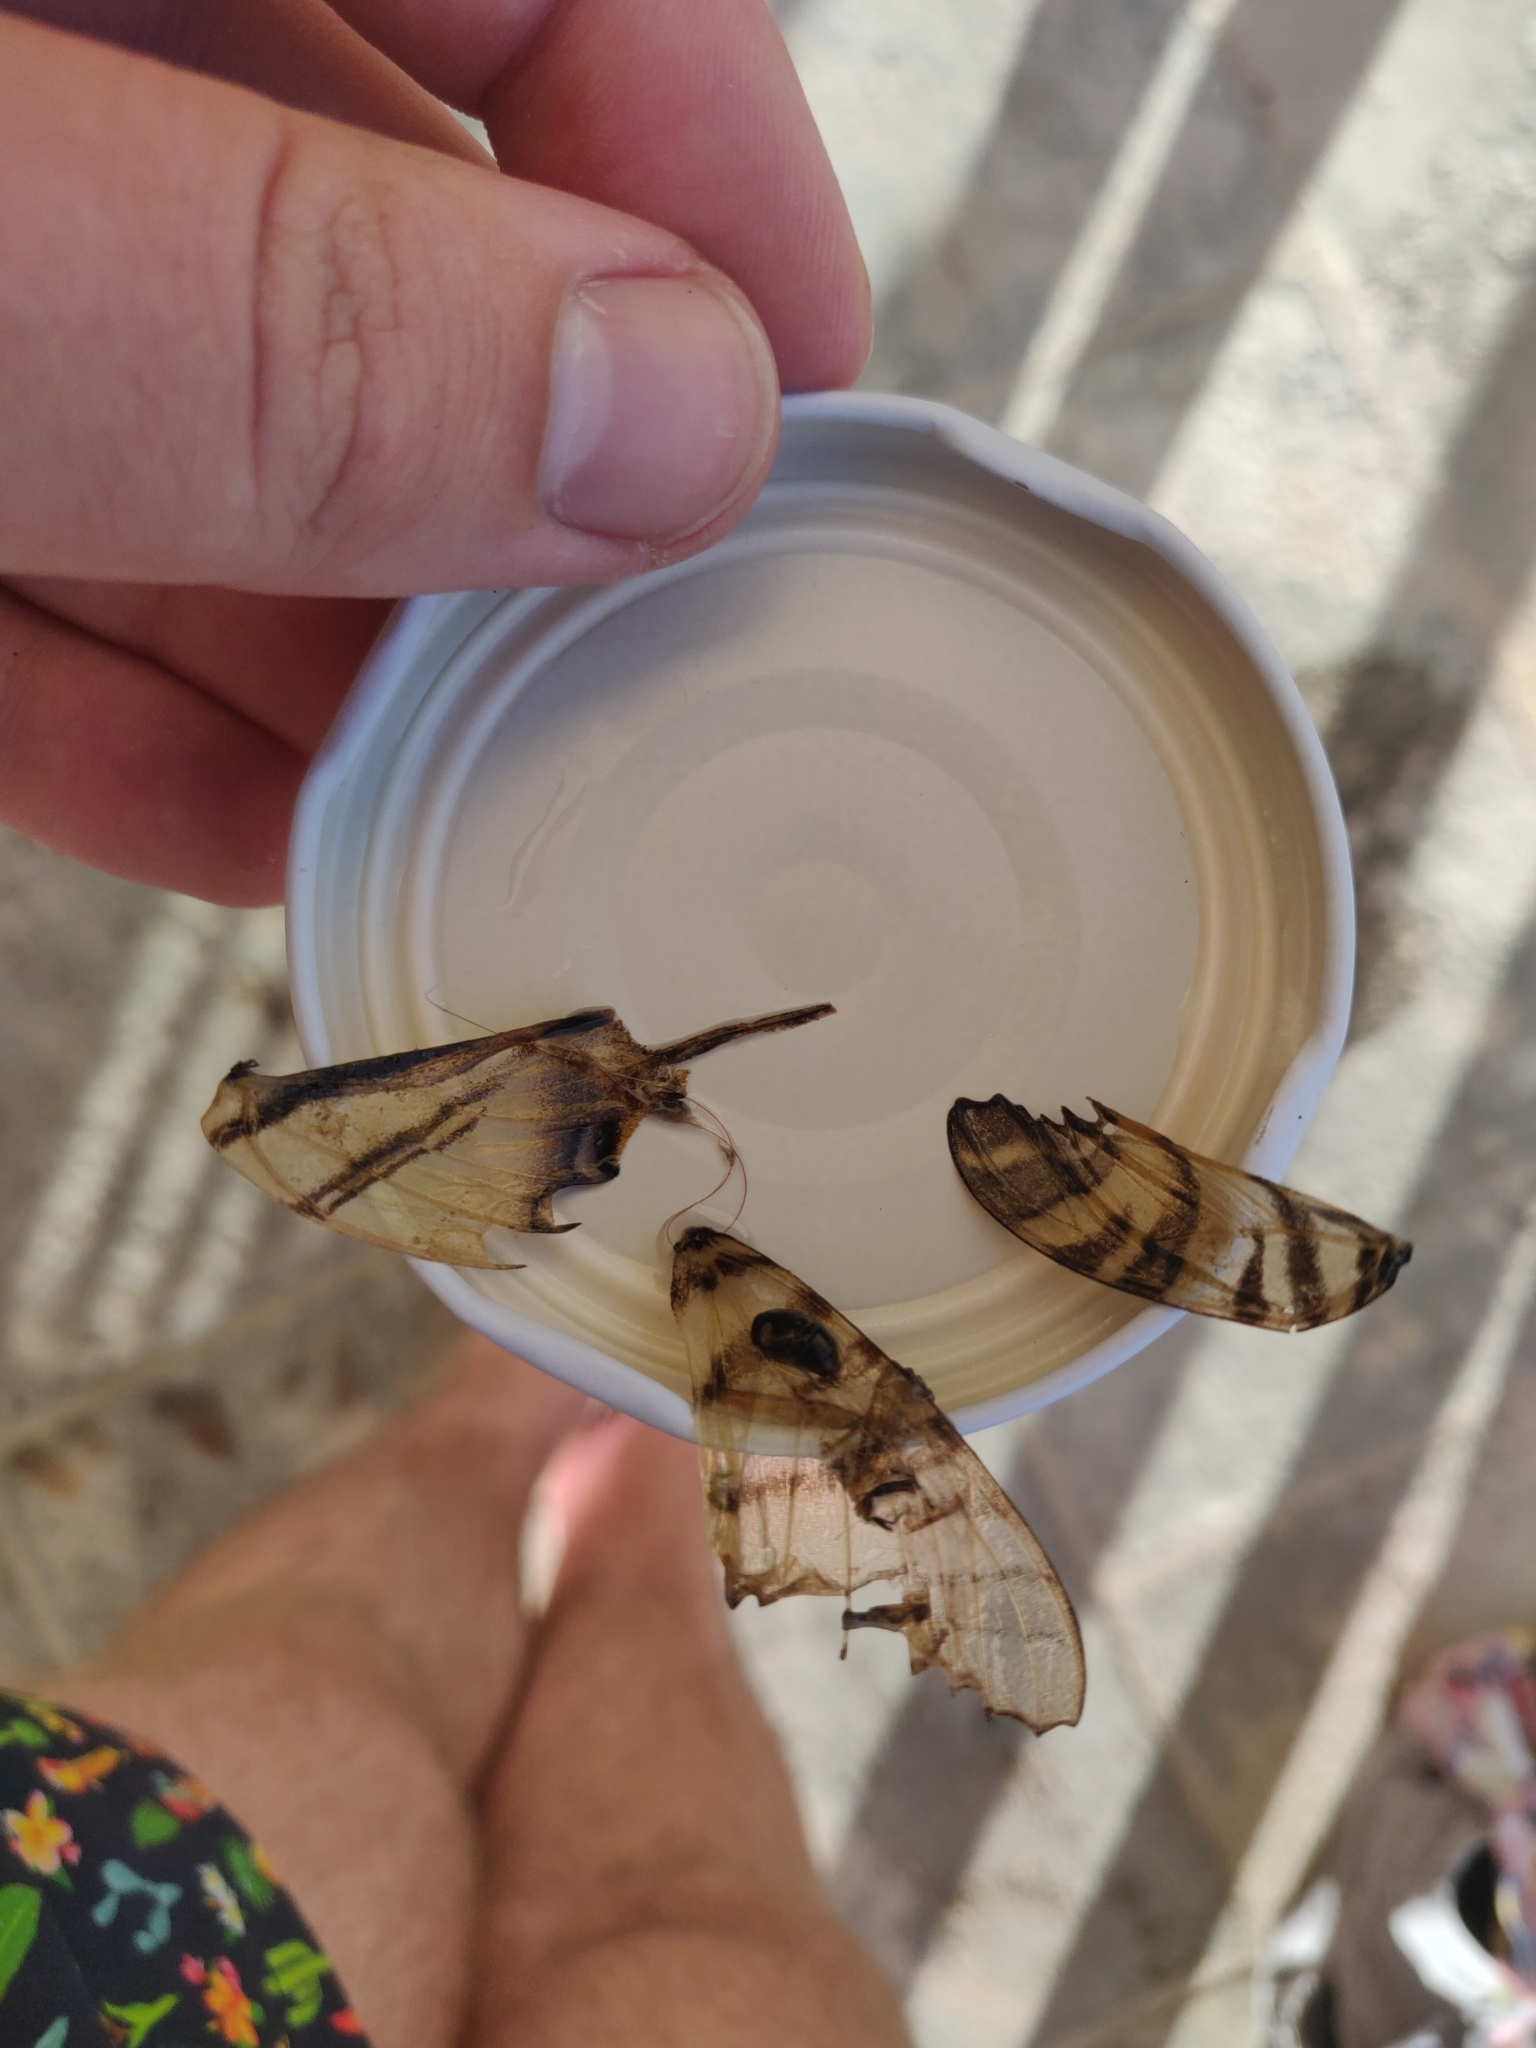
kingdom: Animalia
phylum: Arthropoda
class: Insecta
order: Lepidoptera
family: Papilionidae
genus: Iphiclides
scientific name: Iphiclides podalirius
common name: Scarce swallowtail
